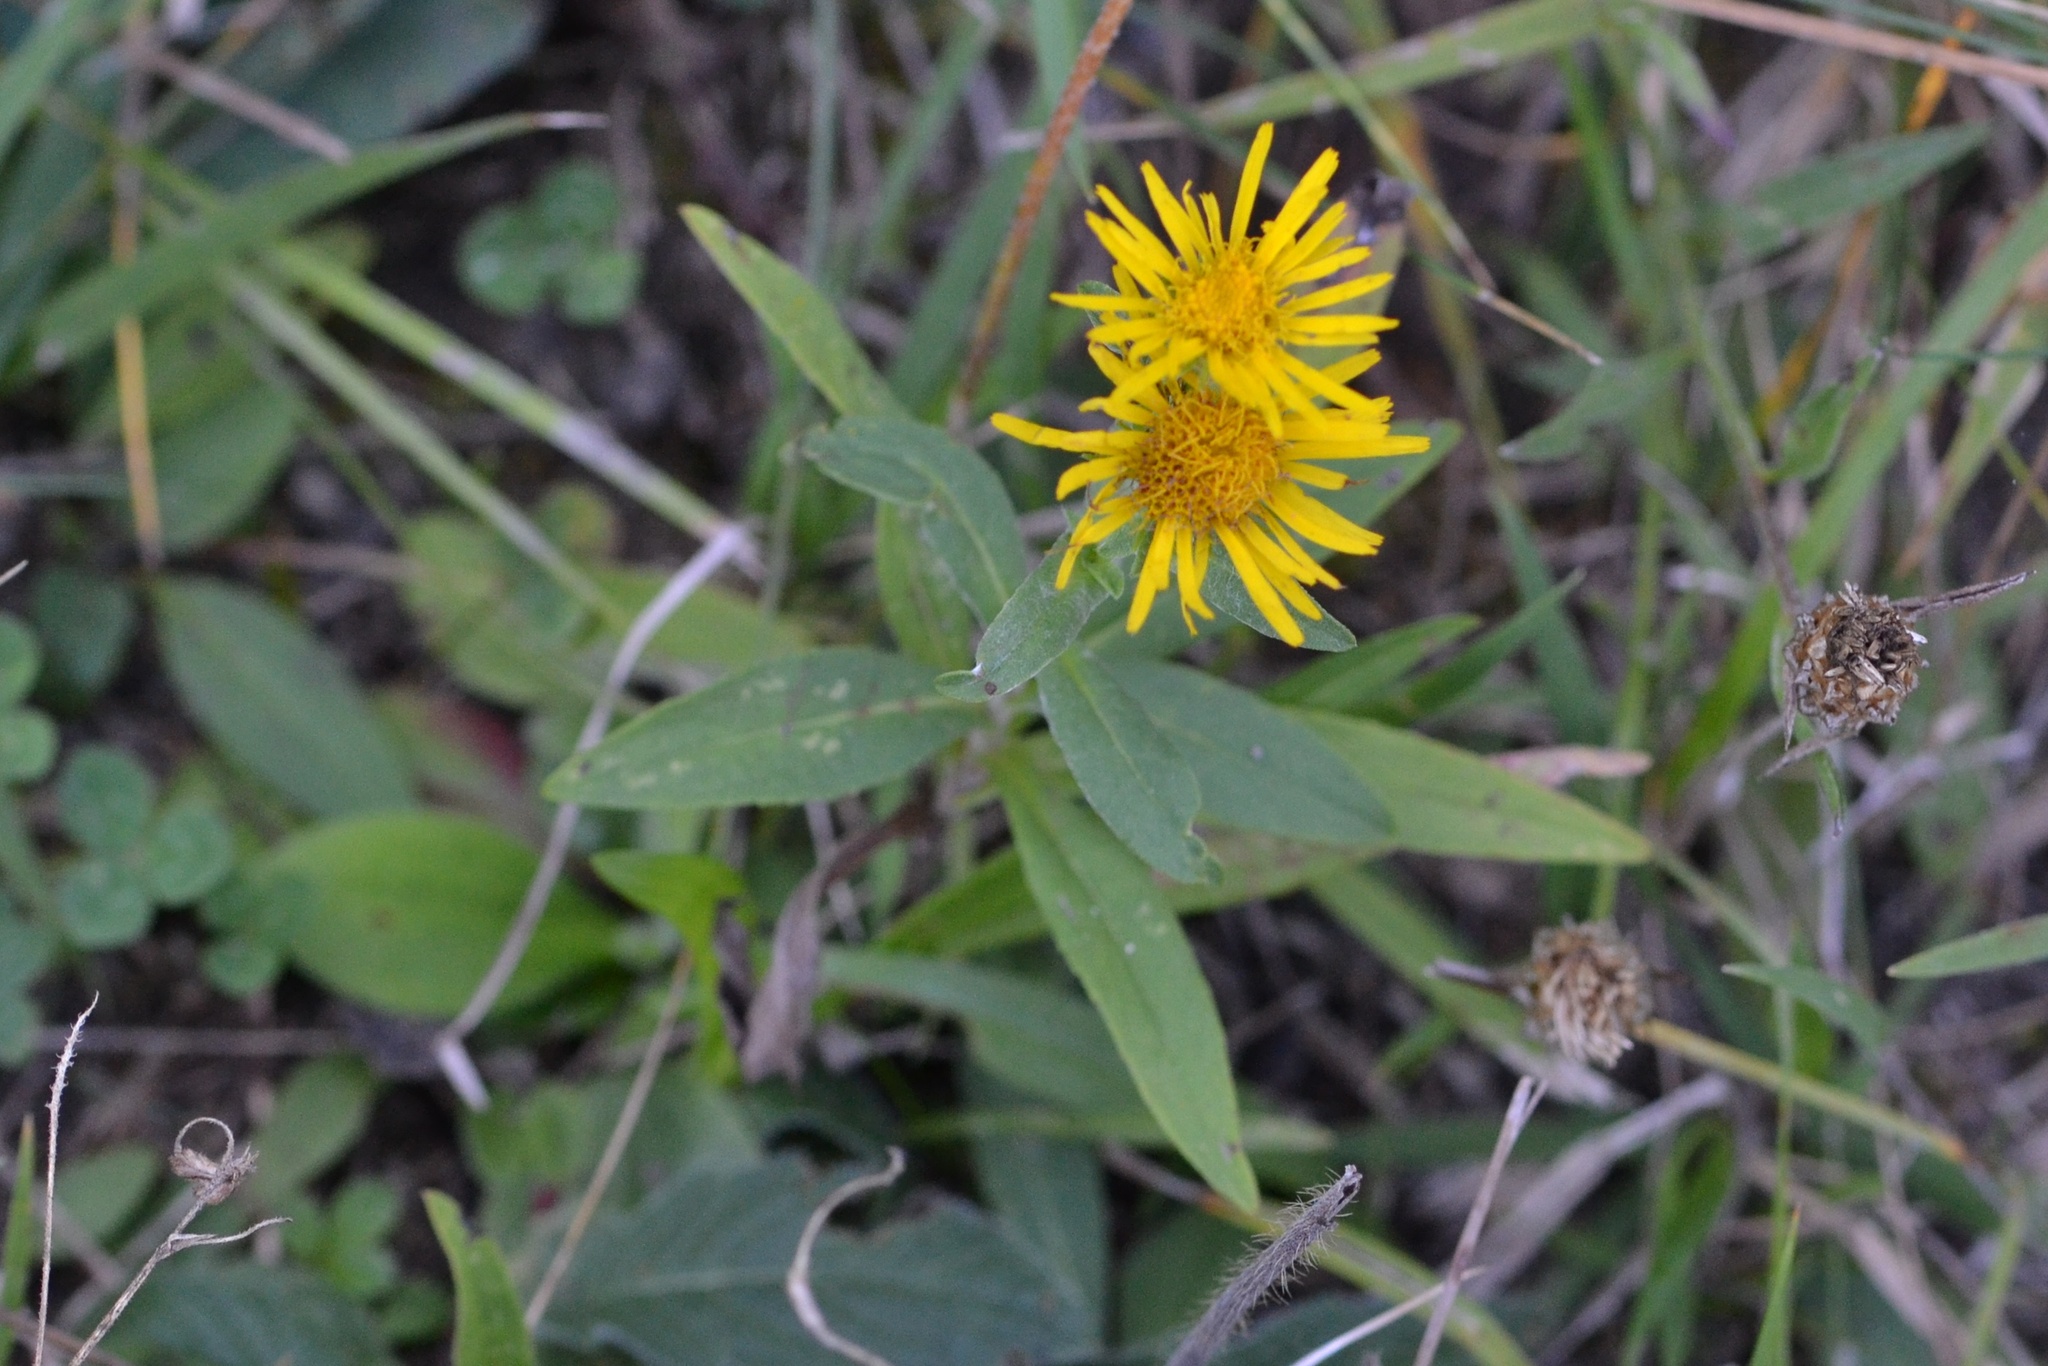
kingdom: Plantae
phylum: Tracheophyta
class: Magnoliopsida
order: Asterales
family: Asteraceae
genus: Pentanema
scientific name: Pentanema britannicum
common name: British elecampane
